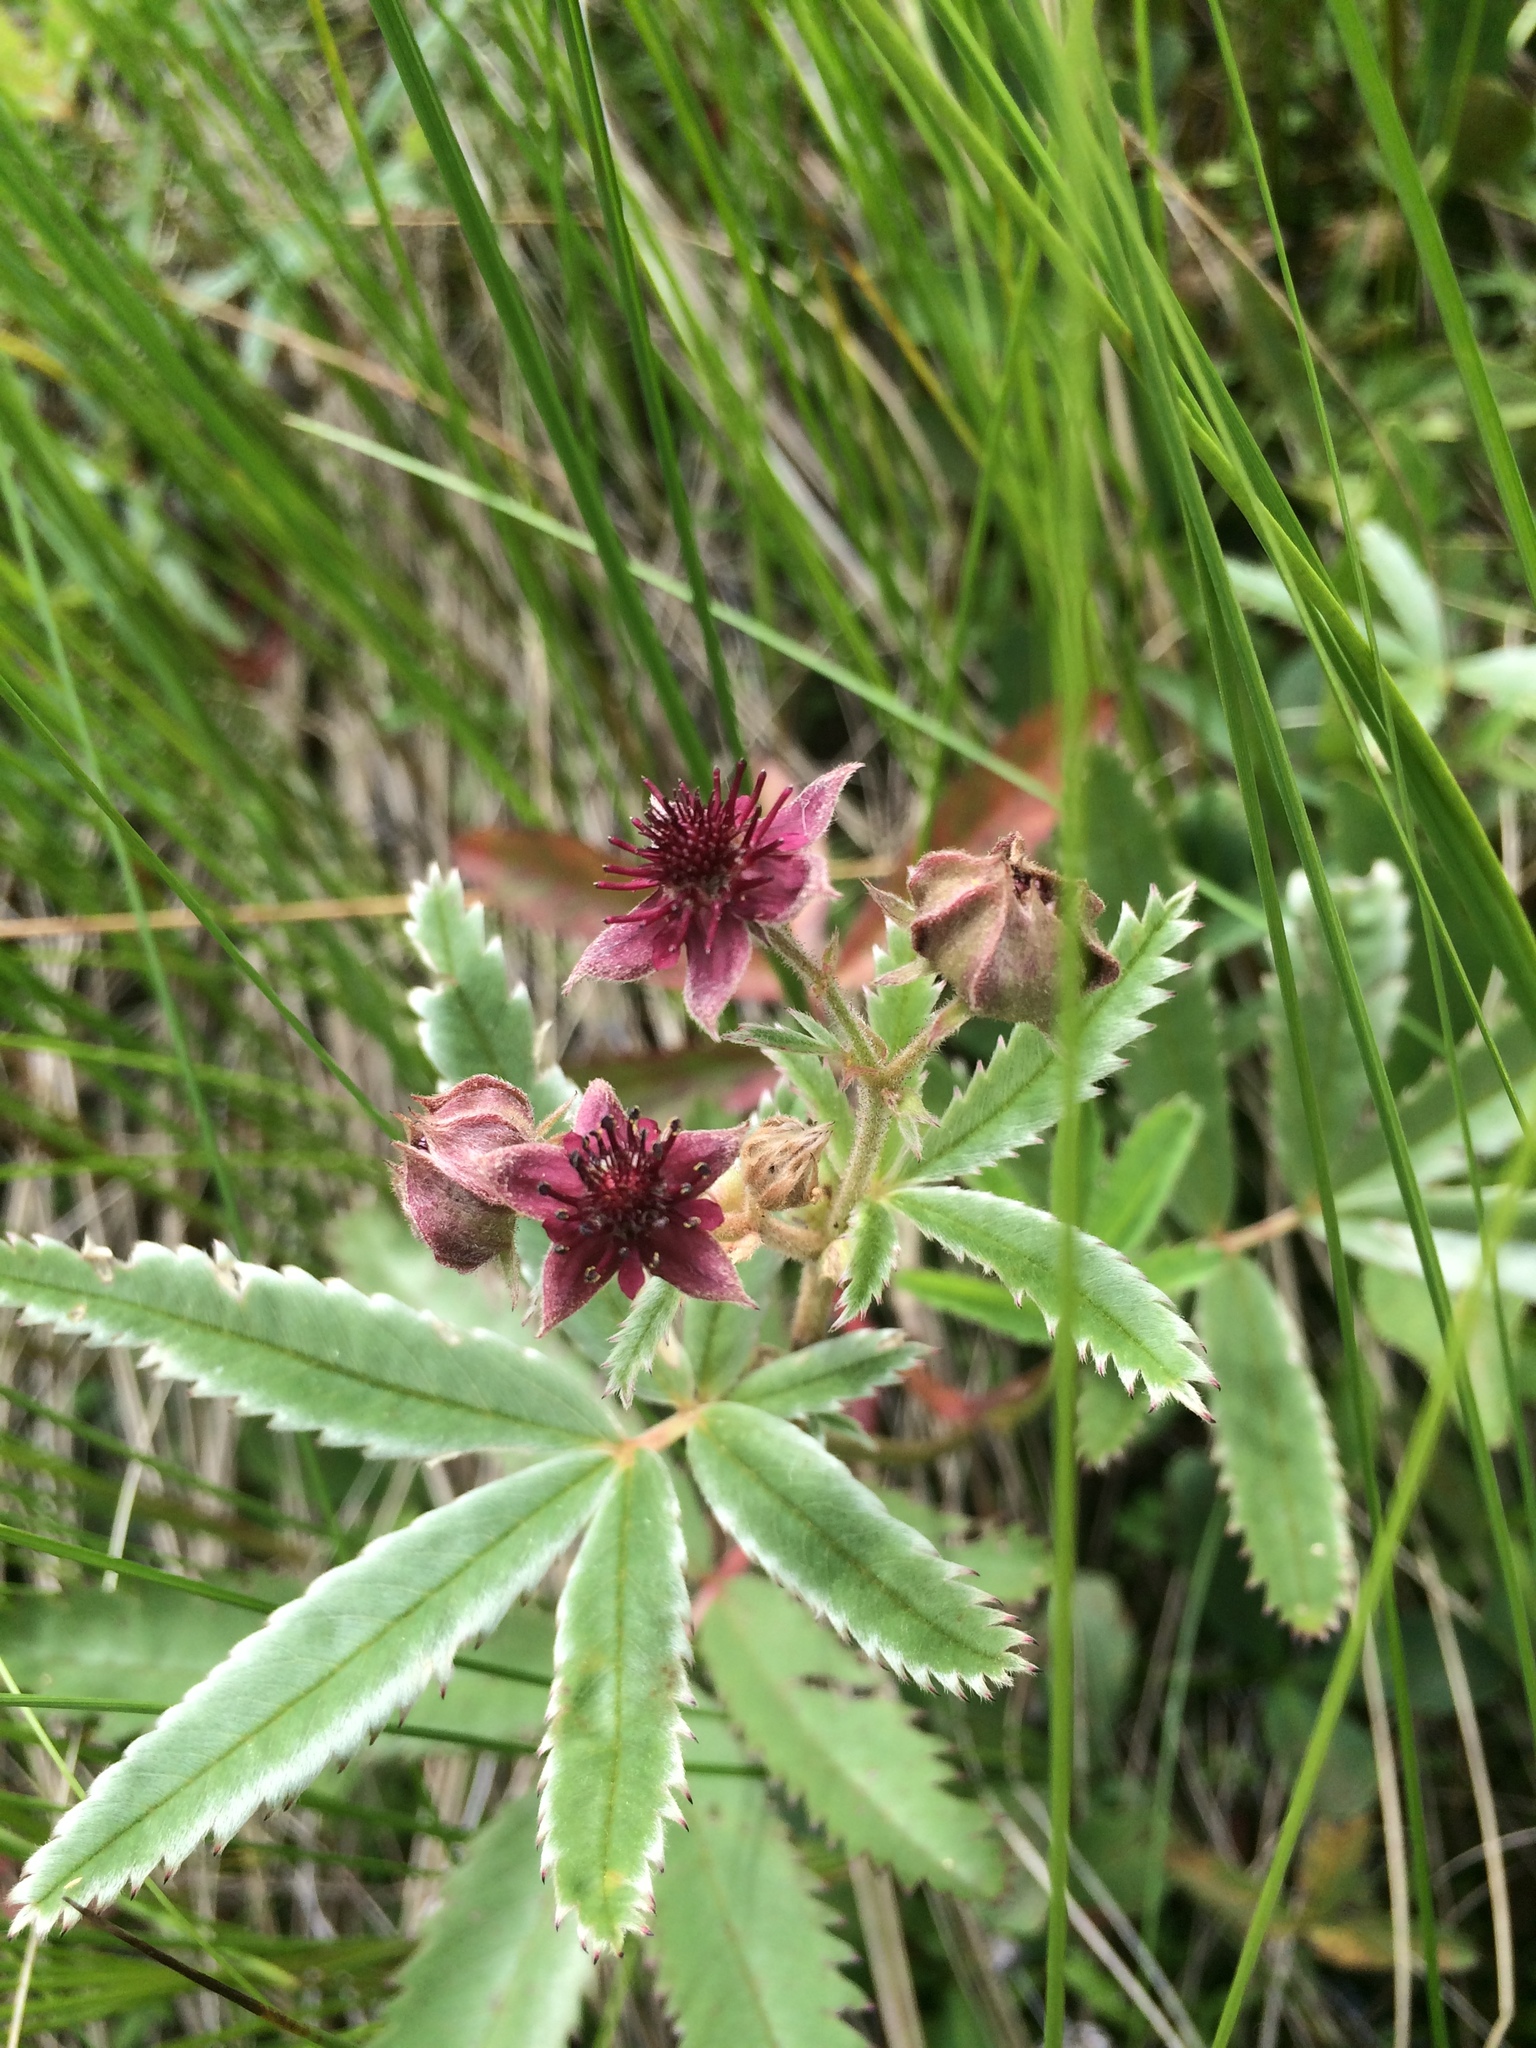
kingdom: Plantae
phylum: Tracheophyta
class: Magnoliopsida
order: Rosales
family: Rosaceae
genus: Comarum
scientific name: Comarum palustre
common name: Marsh cinquefoil
